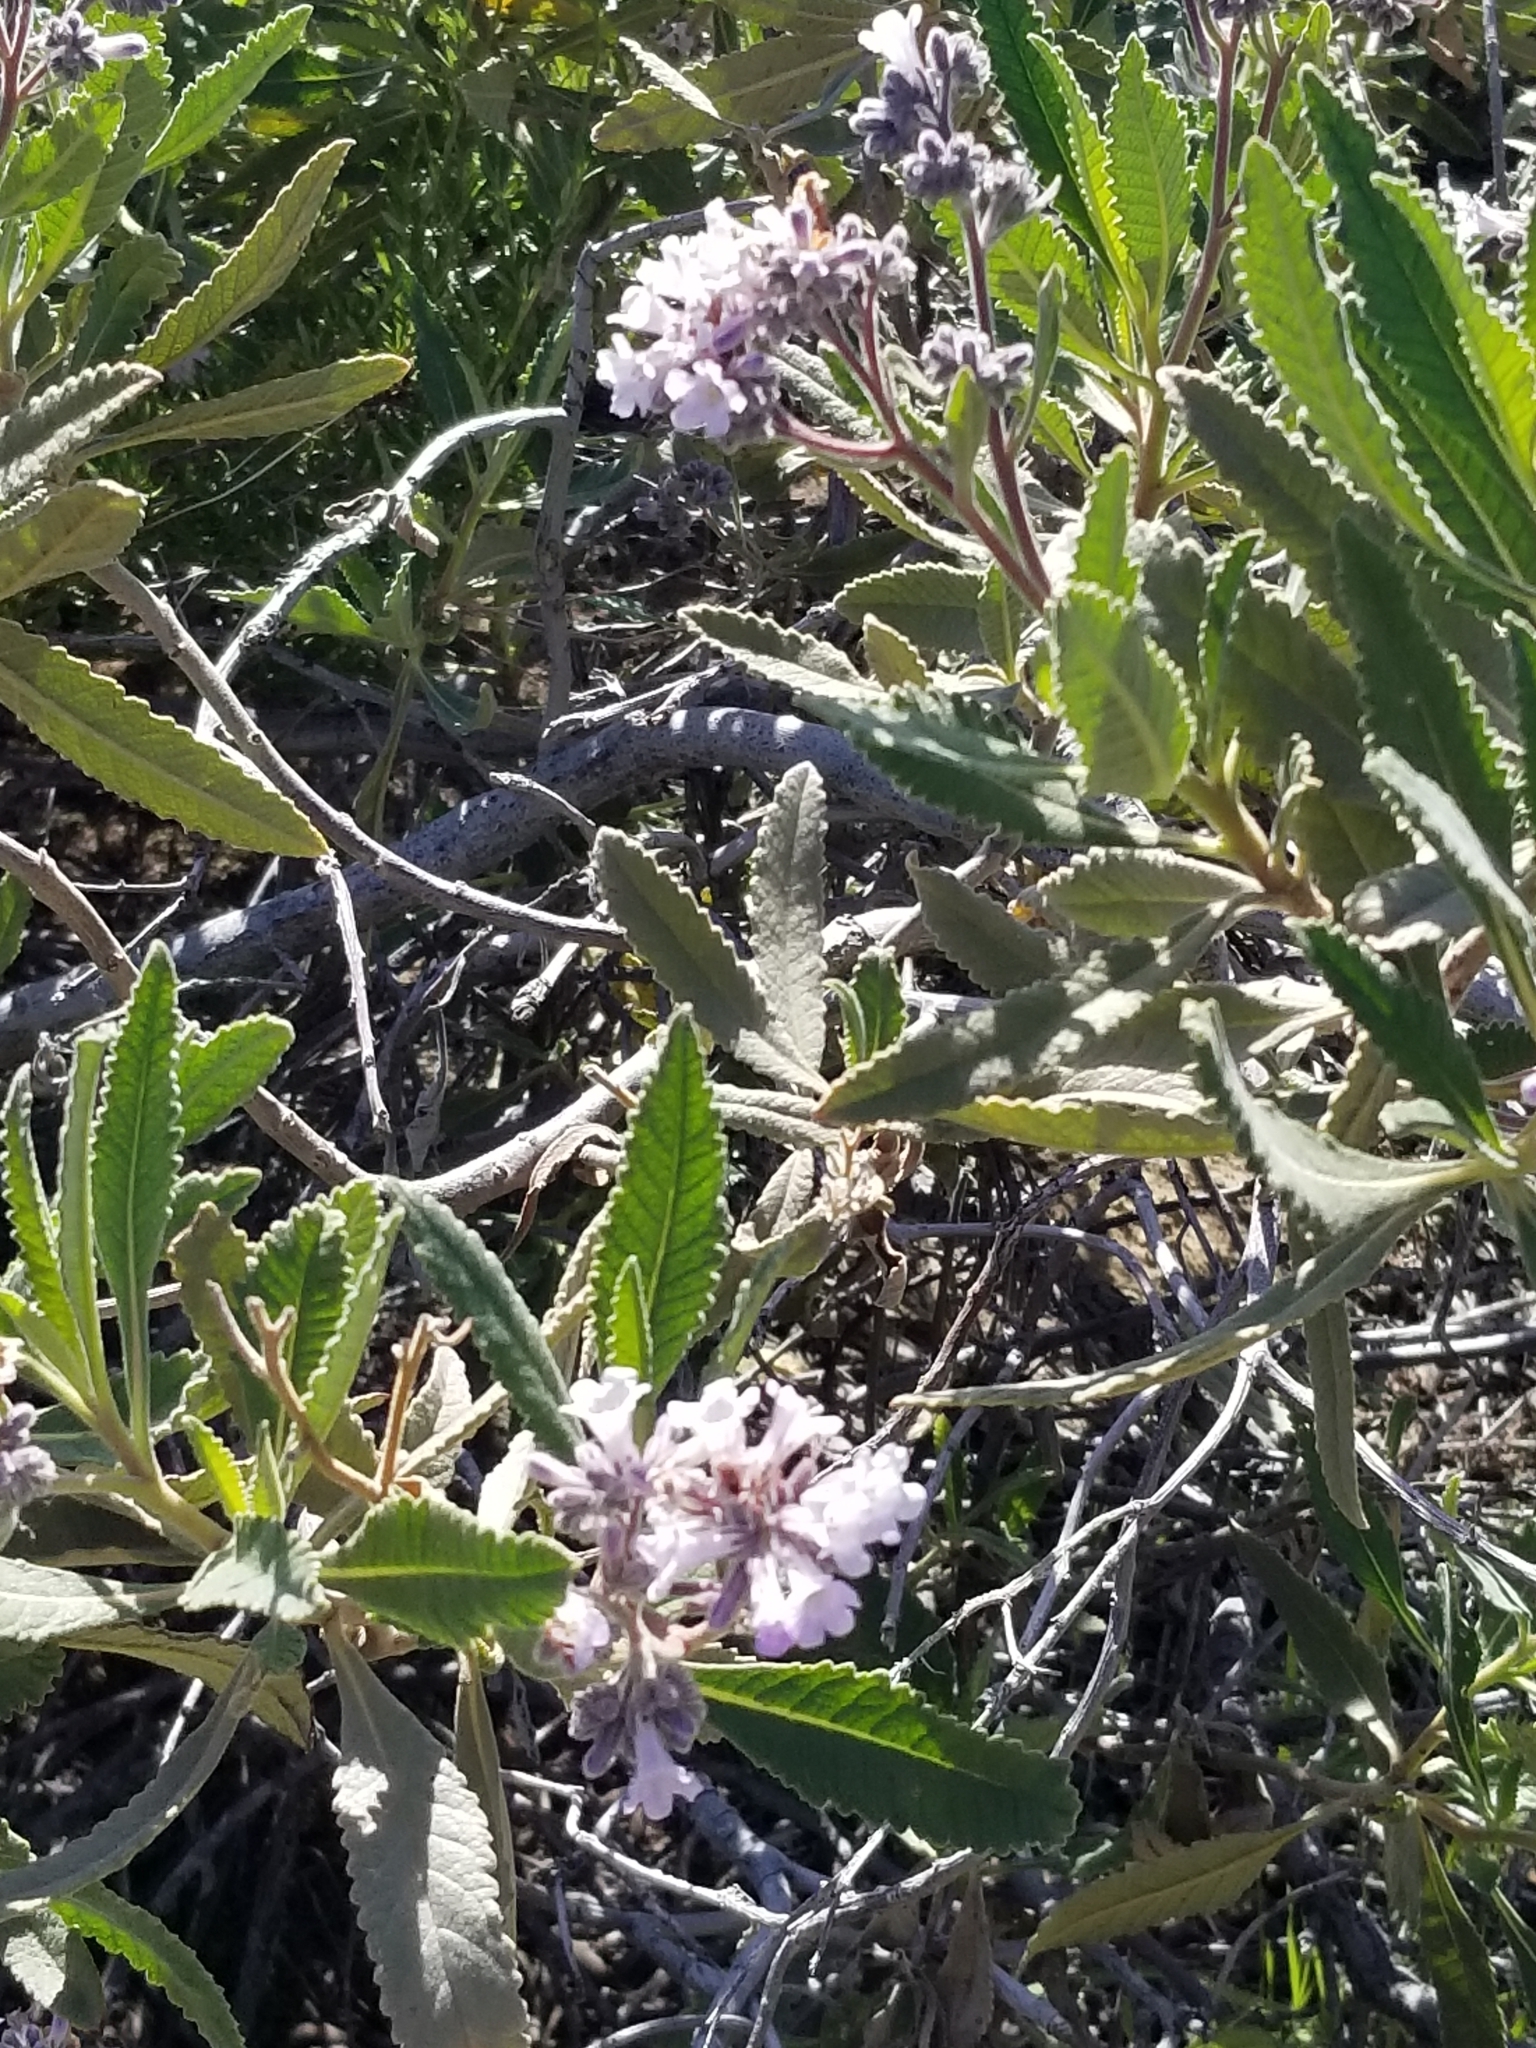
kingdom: Plantae
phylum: Tracheophyta
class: Magnoliopsida
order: Boraginales
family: Namaceae
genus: Eriodictyon
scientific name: Eriodictyon crassifolium
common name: Thick-leaf yerba-santa
